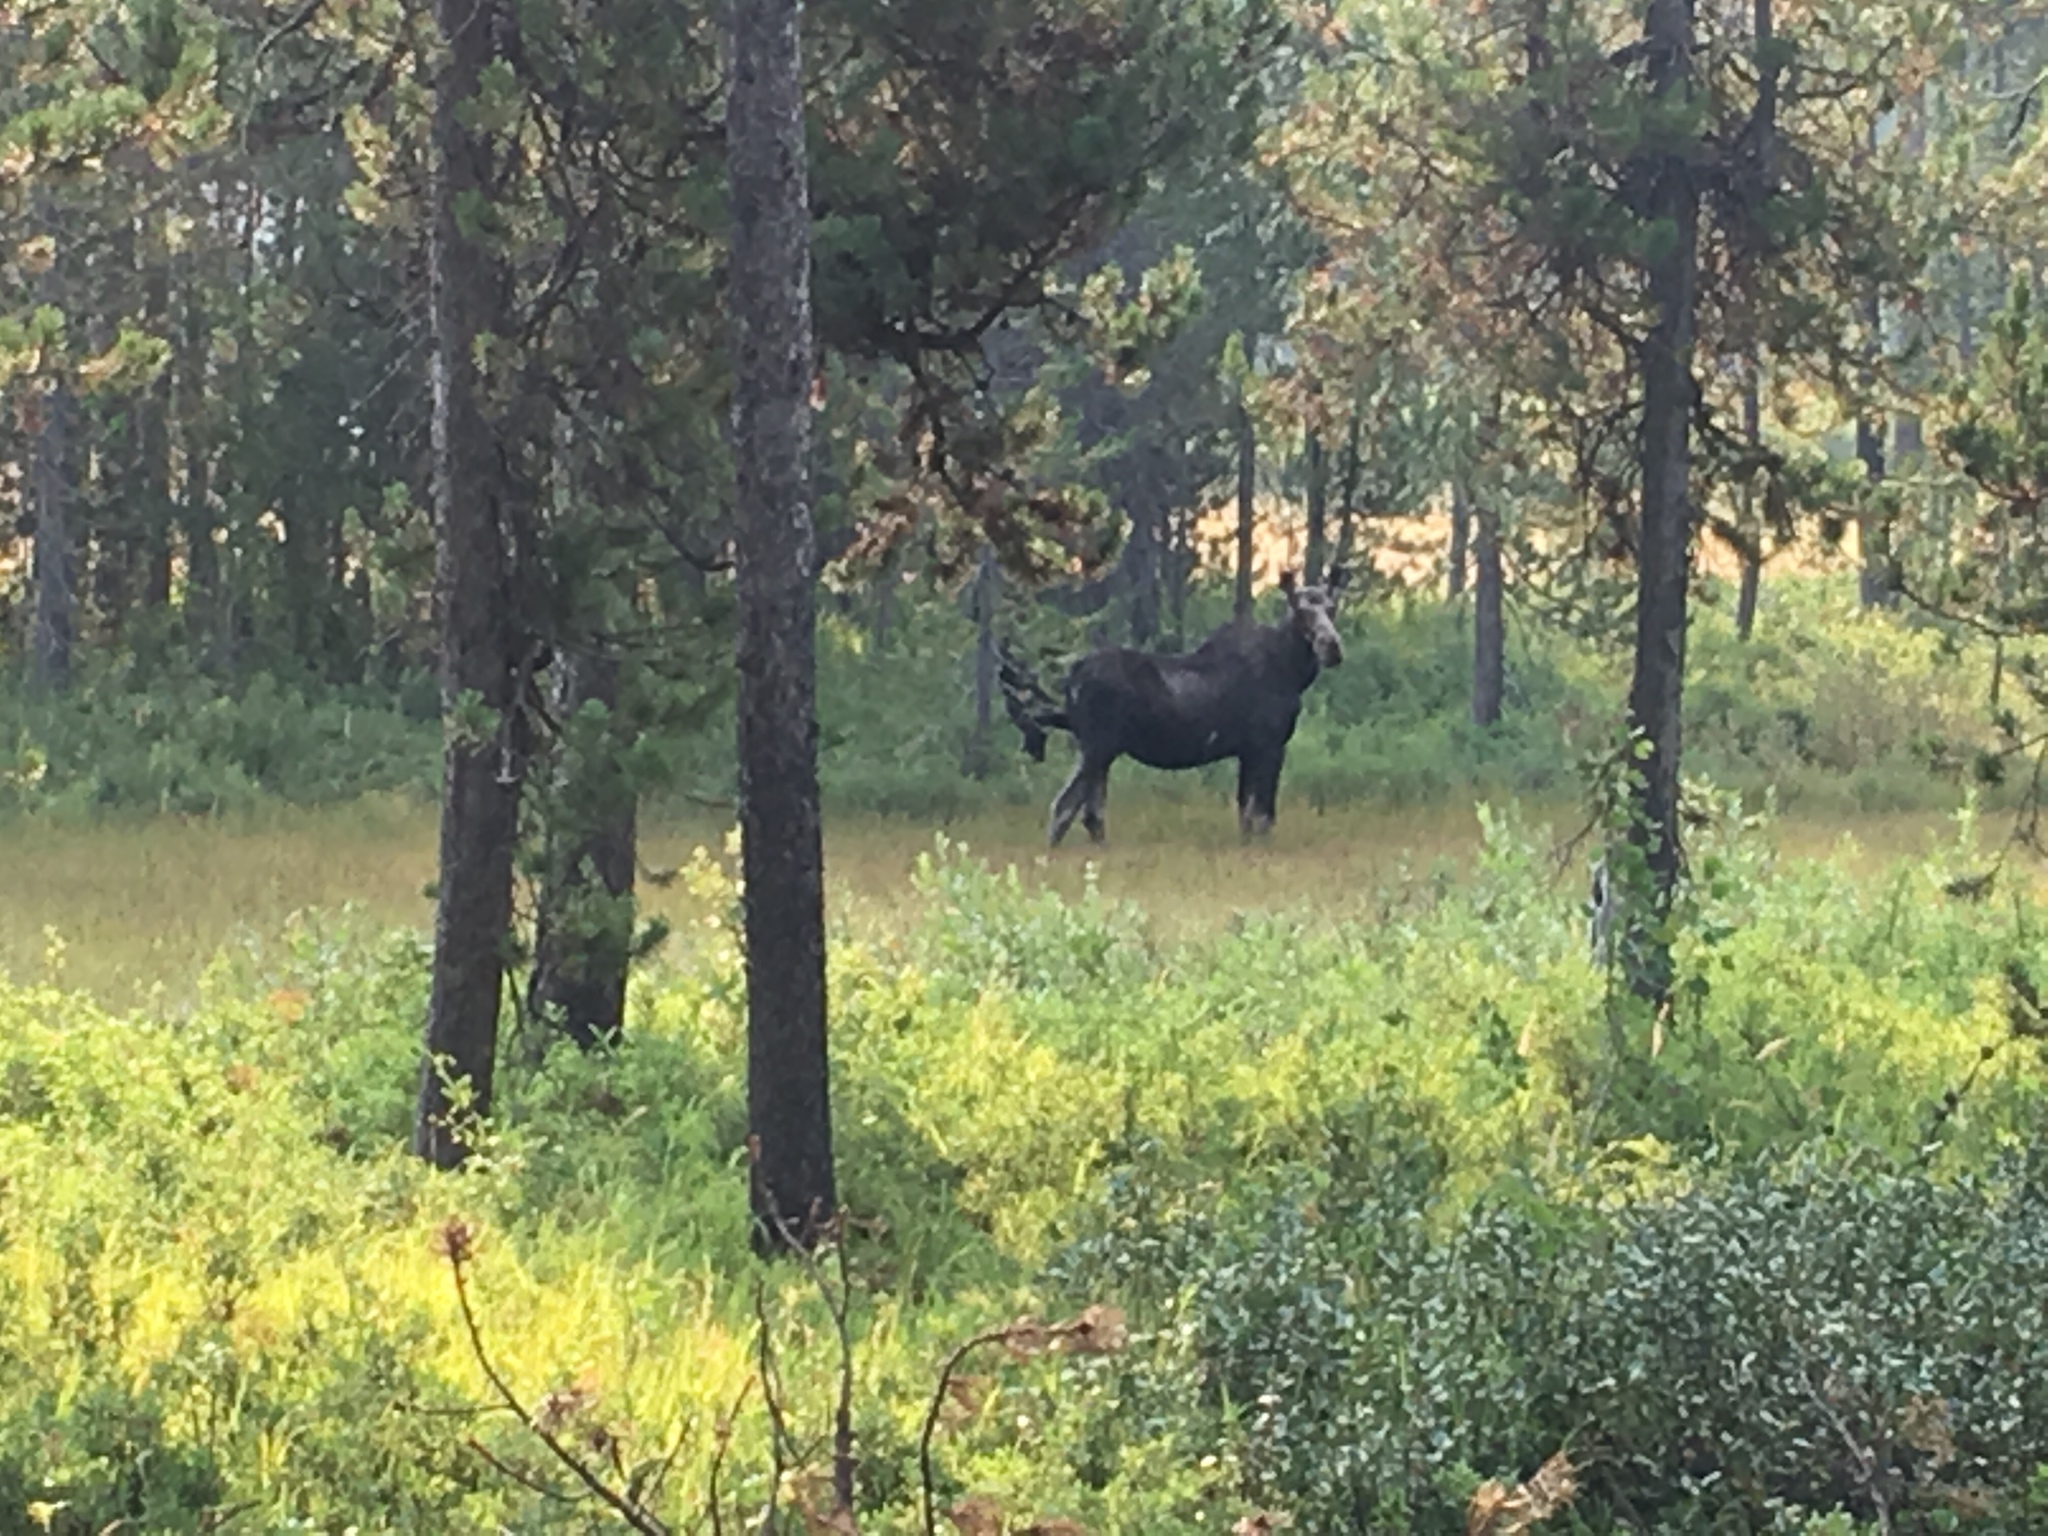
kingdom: Animalia
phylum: Chordata
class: Mammalia
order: Artiodactyla
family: Cervidae
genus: Alces
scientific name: Alces alces
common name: Moose
